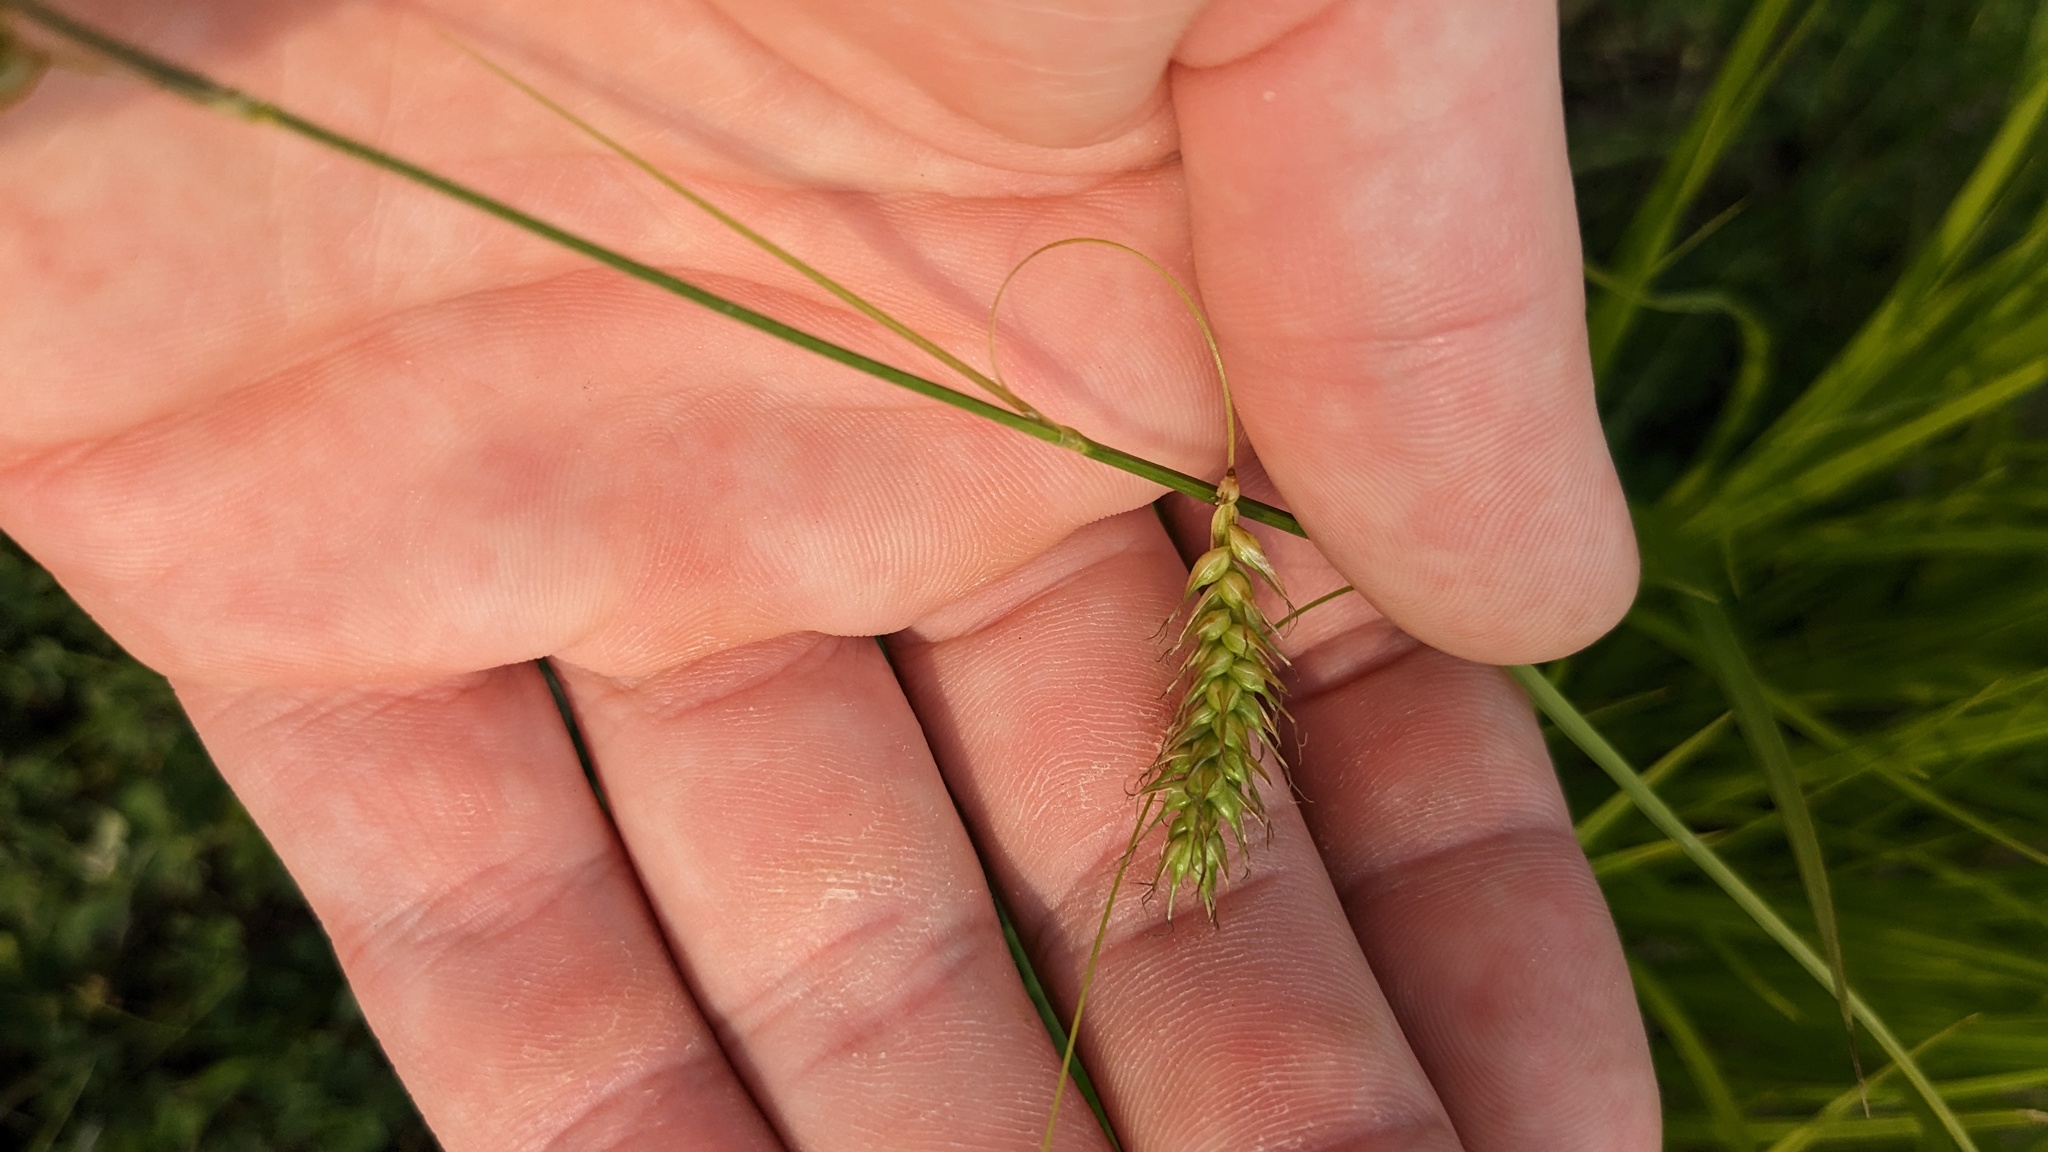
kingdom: Plantae
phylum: Tracheophyta
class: Liliopsida
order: Poales
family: Cyperaceae
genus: Carex
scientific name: Carex sprengelii
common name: Long-beaked sedge
